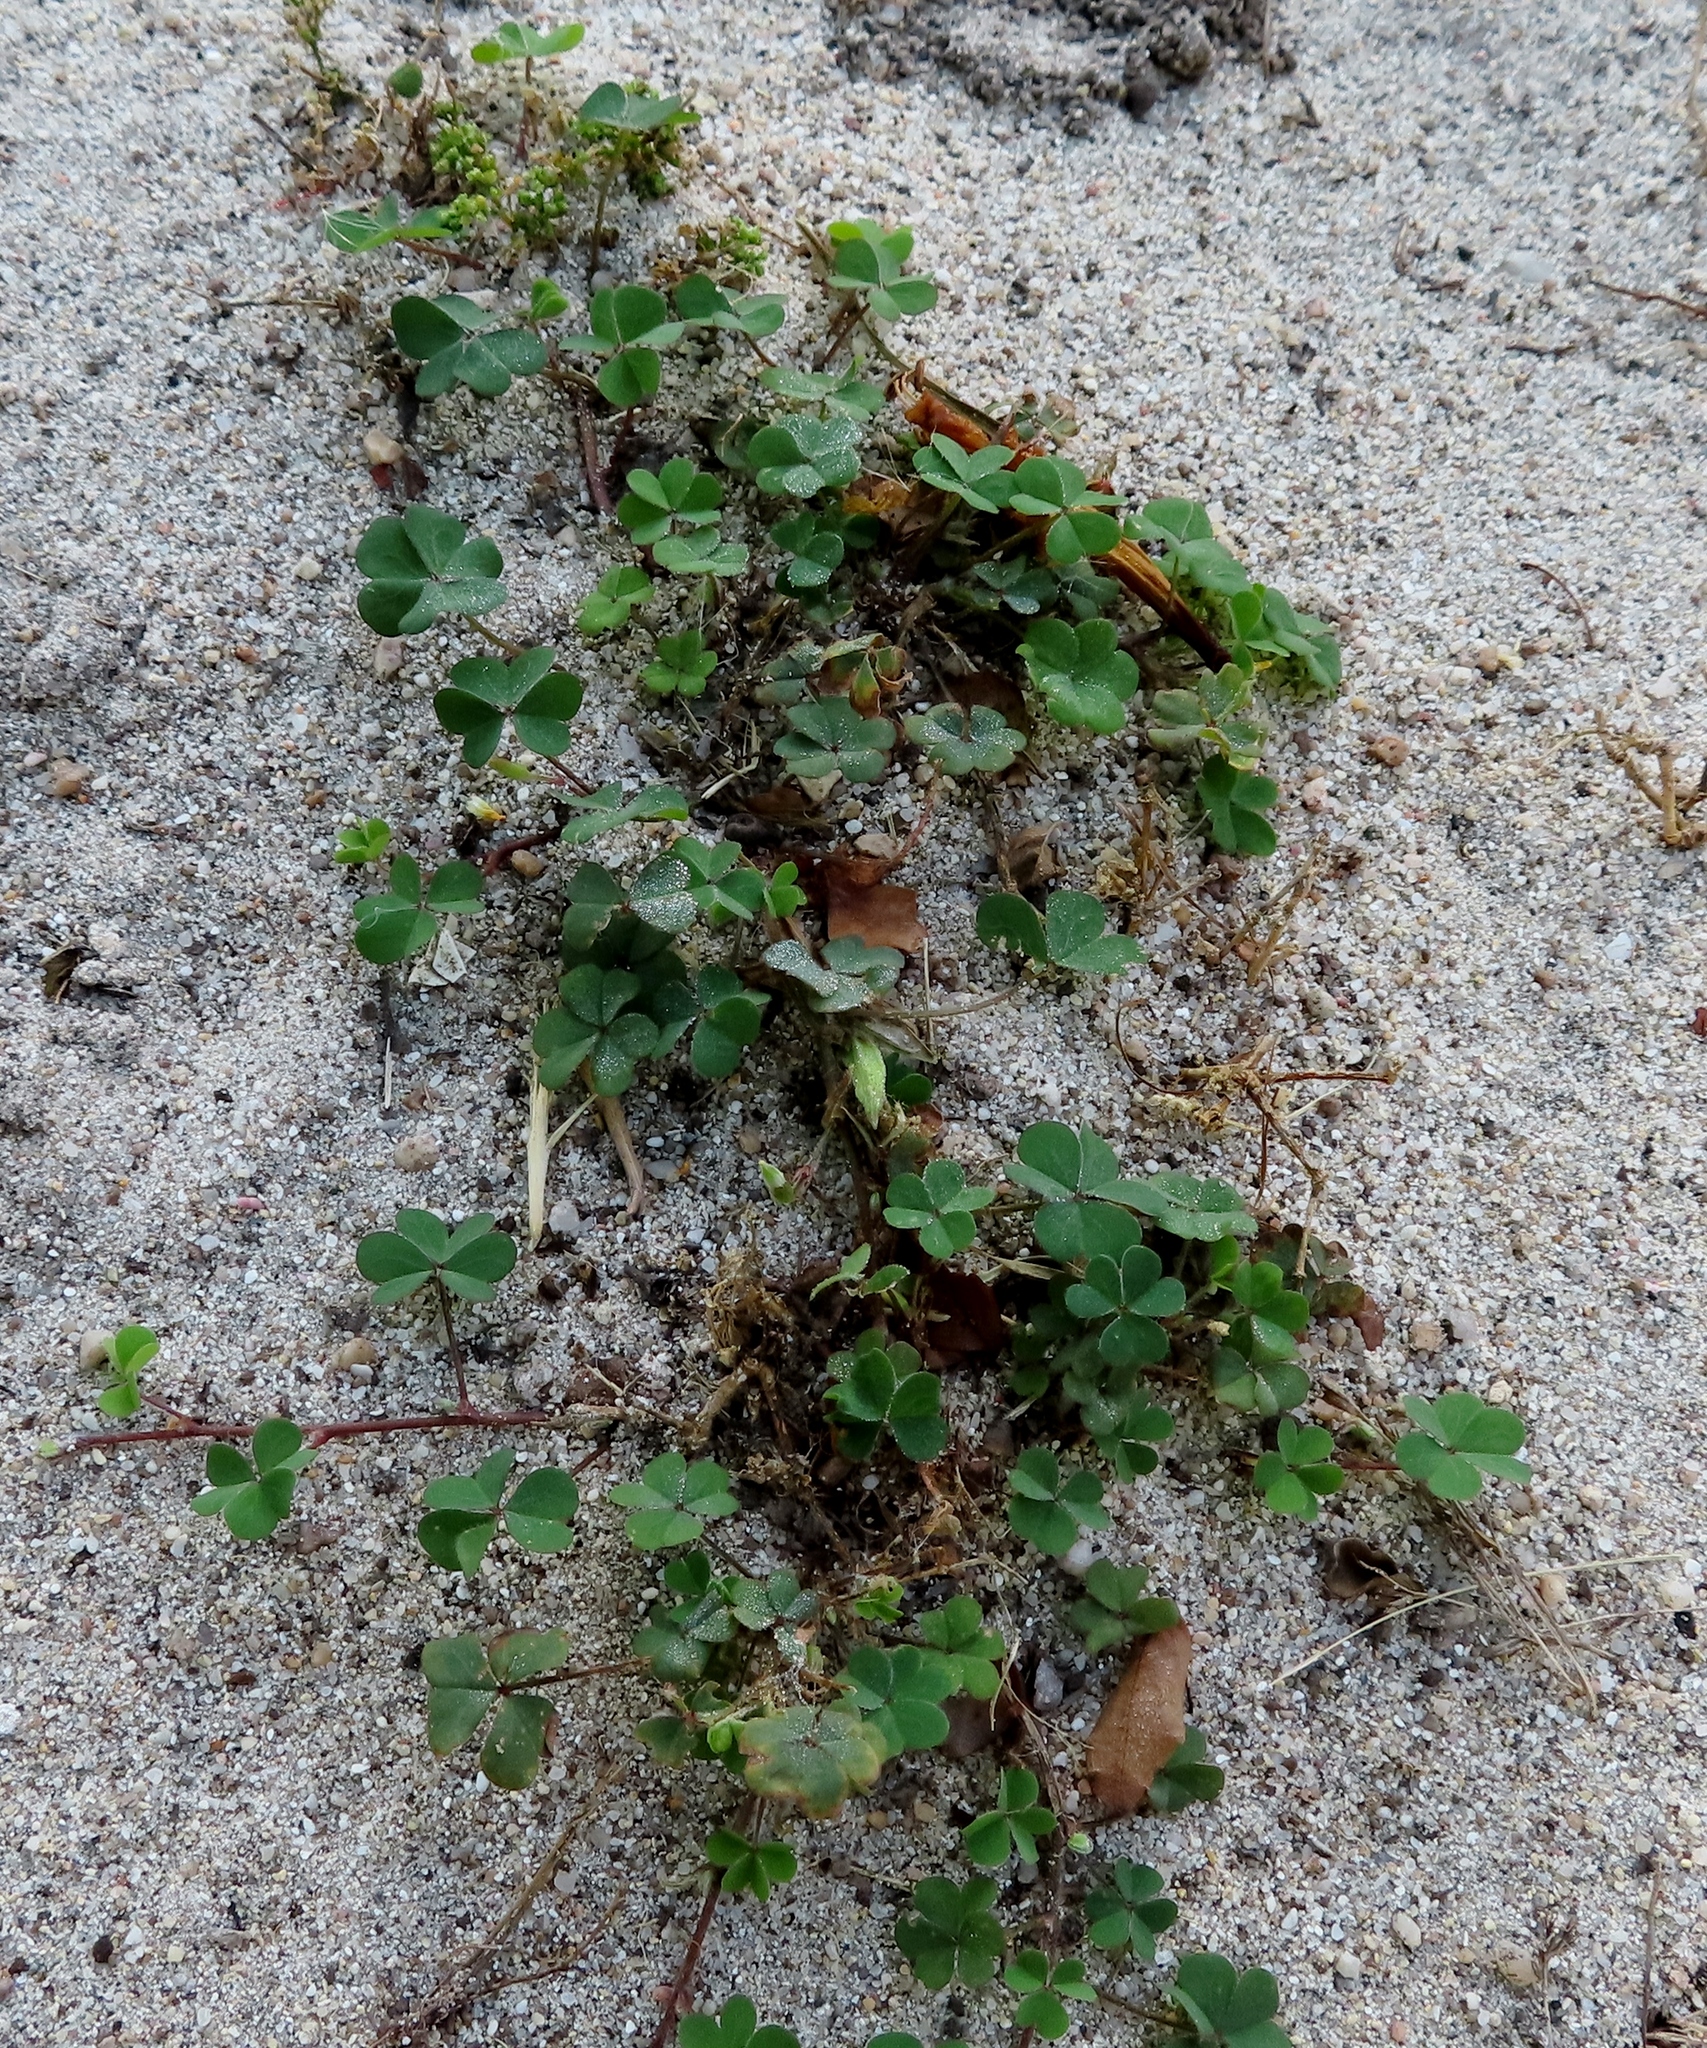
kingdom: Plantae
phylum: Tracheophyta
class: Magnoliopsida
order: Oxalidales
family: Oxalidaceae
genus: Oxalis
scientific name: Oxalis corniculata
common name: Procumbent yellow-sorrel
